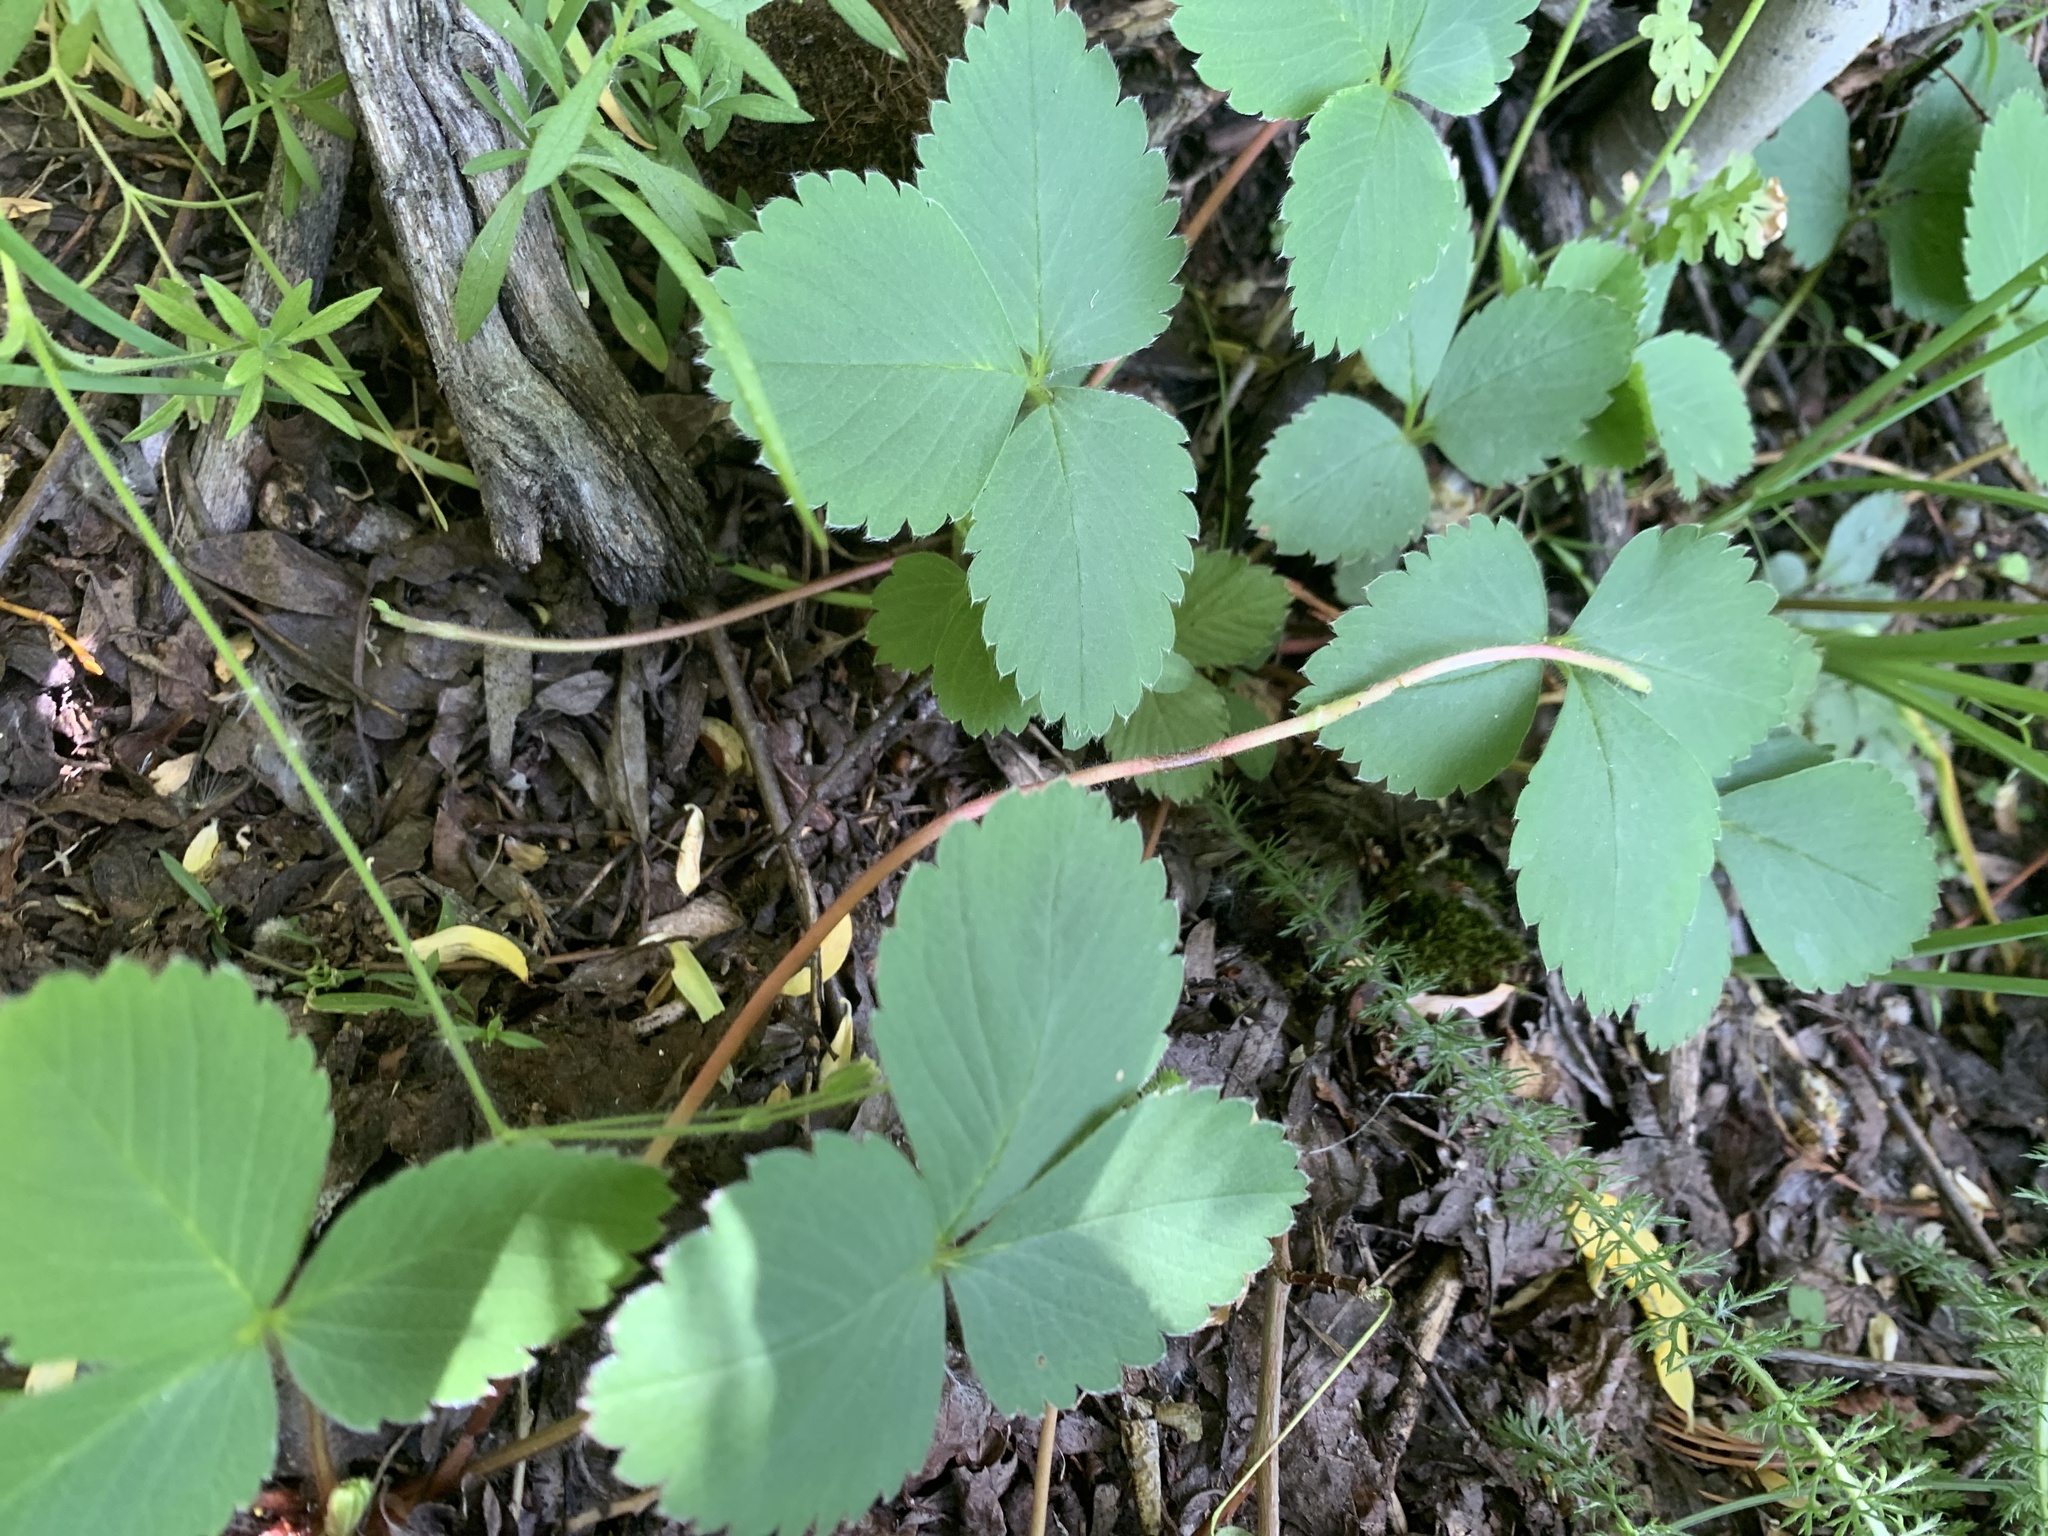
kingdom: Plantae
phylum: Tracheophyta
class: Magnoliopsida
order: Rosales
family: Rosaceae
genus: Fragaria
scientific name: Fragaria virginiana
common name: Thickleaved wild strawberry
